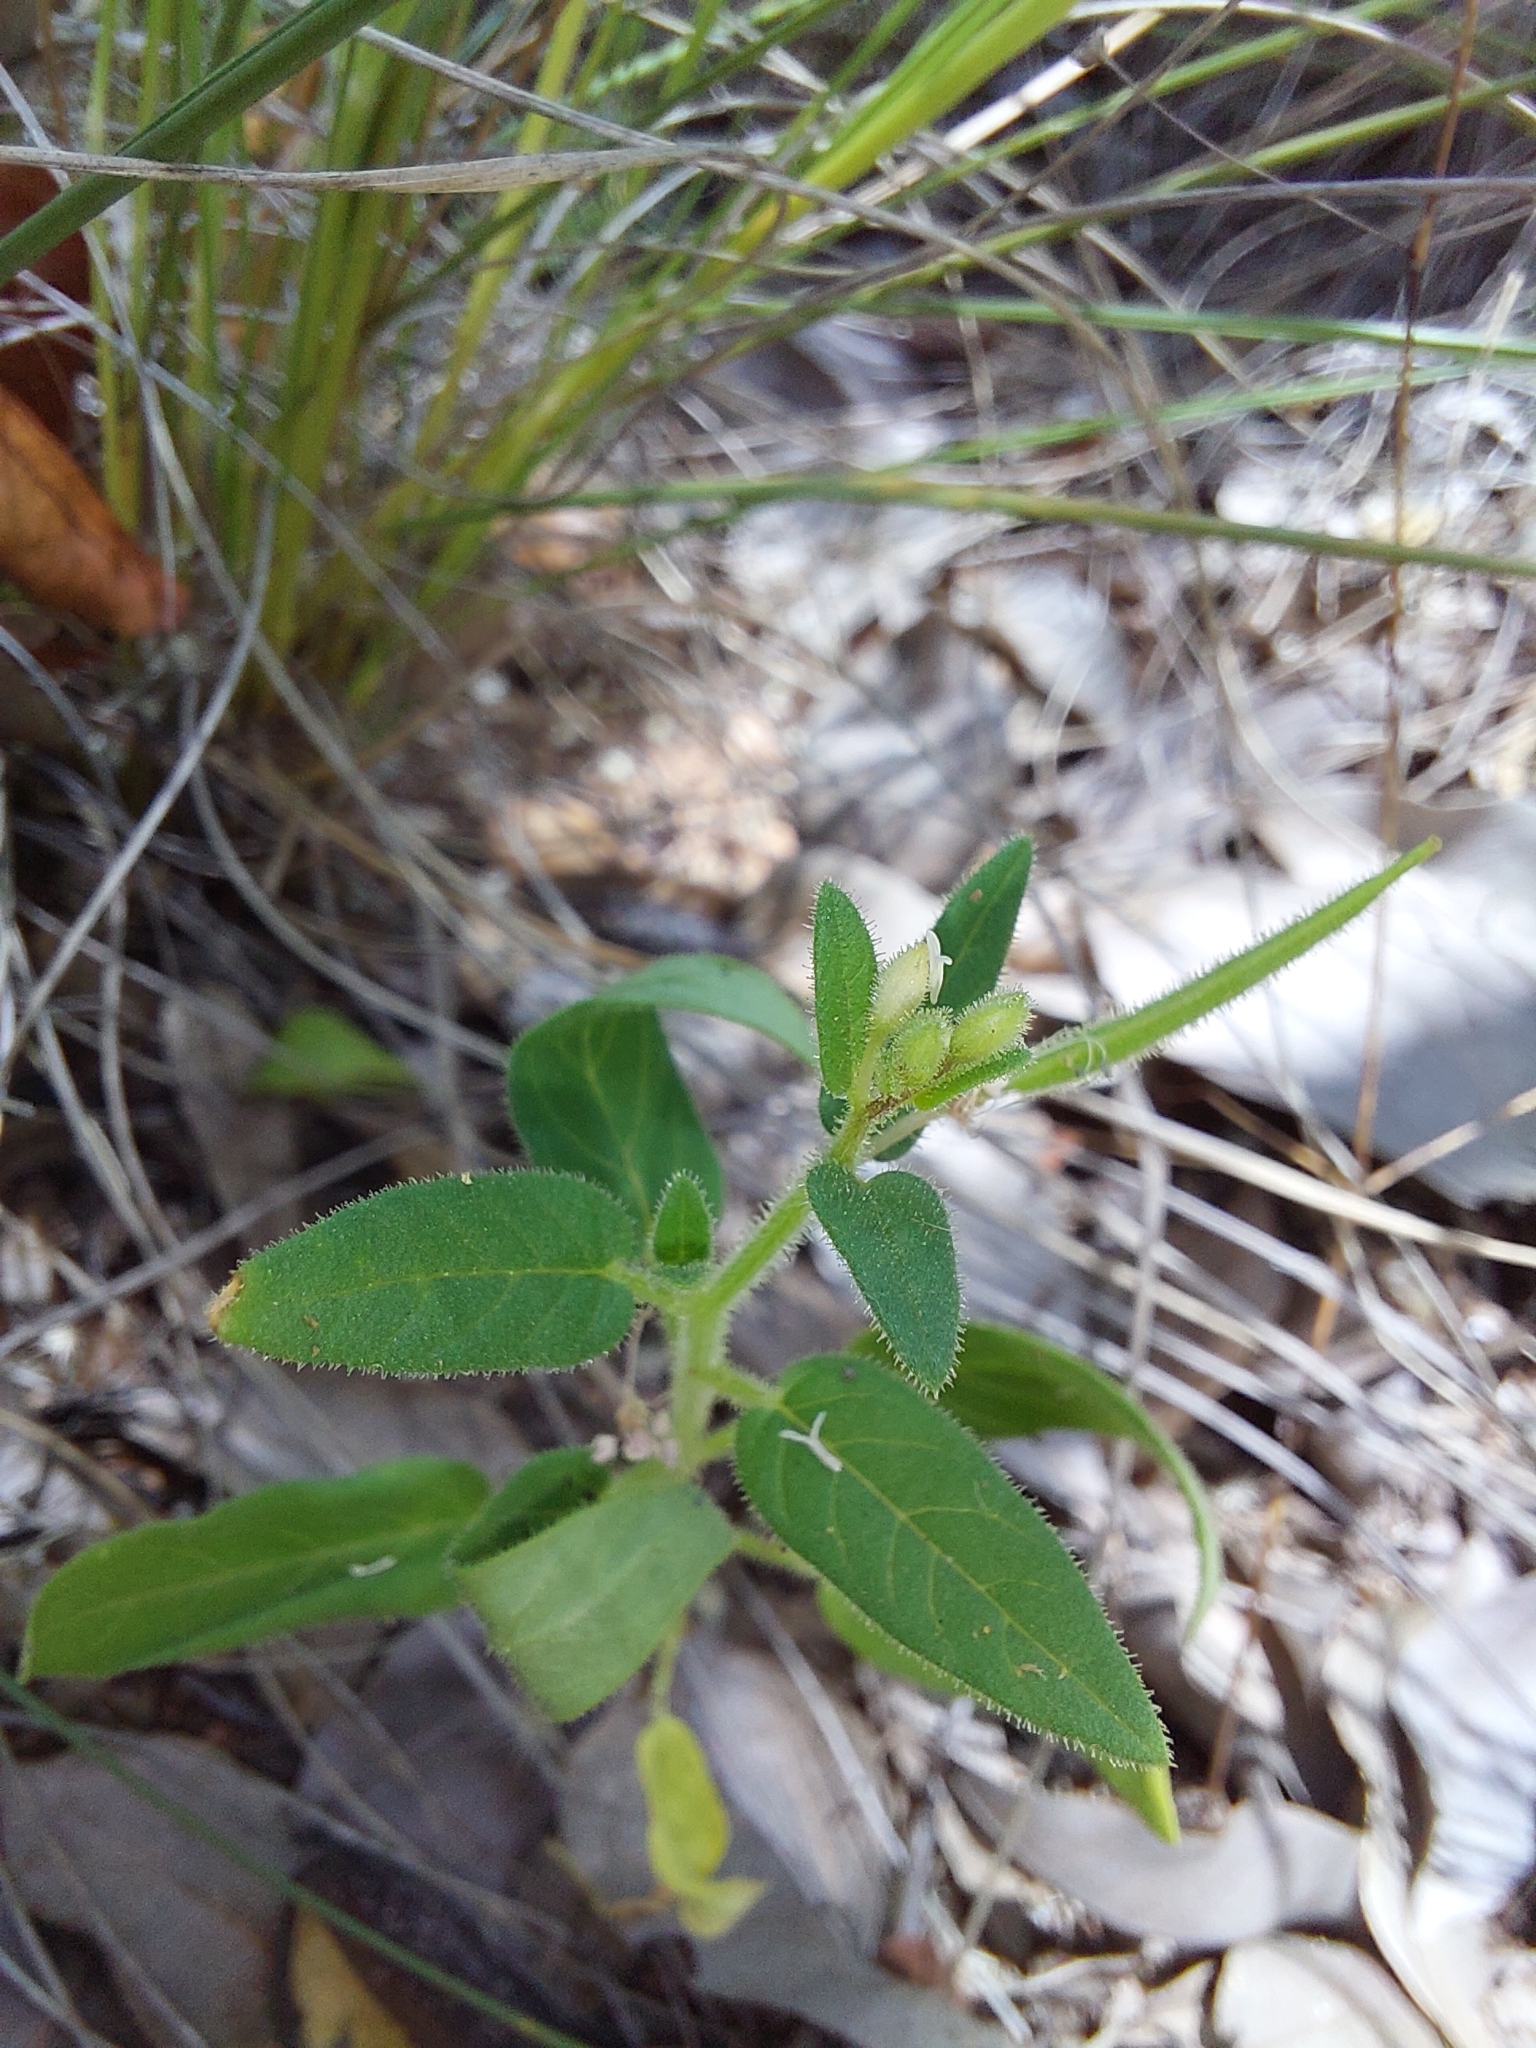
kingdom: Plantae
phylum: Tracheophyta
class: Magnoliopsida
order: Brassicales
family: Cleomaceae
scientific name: Cleomaceae
